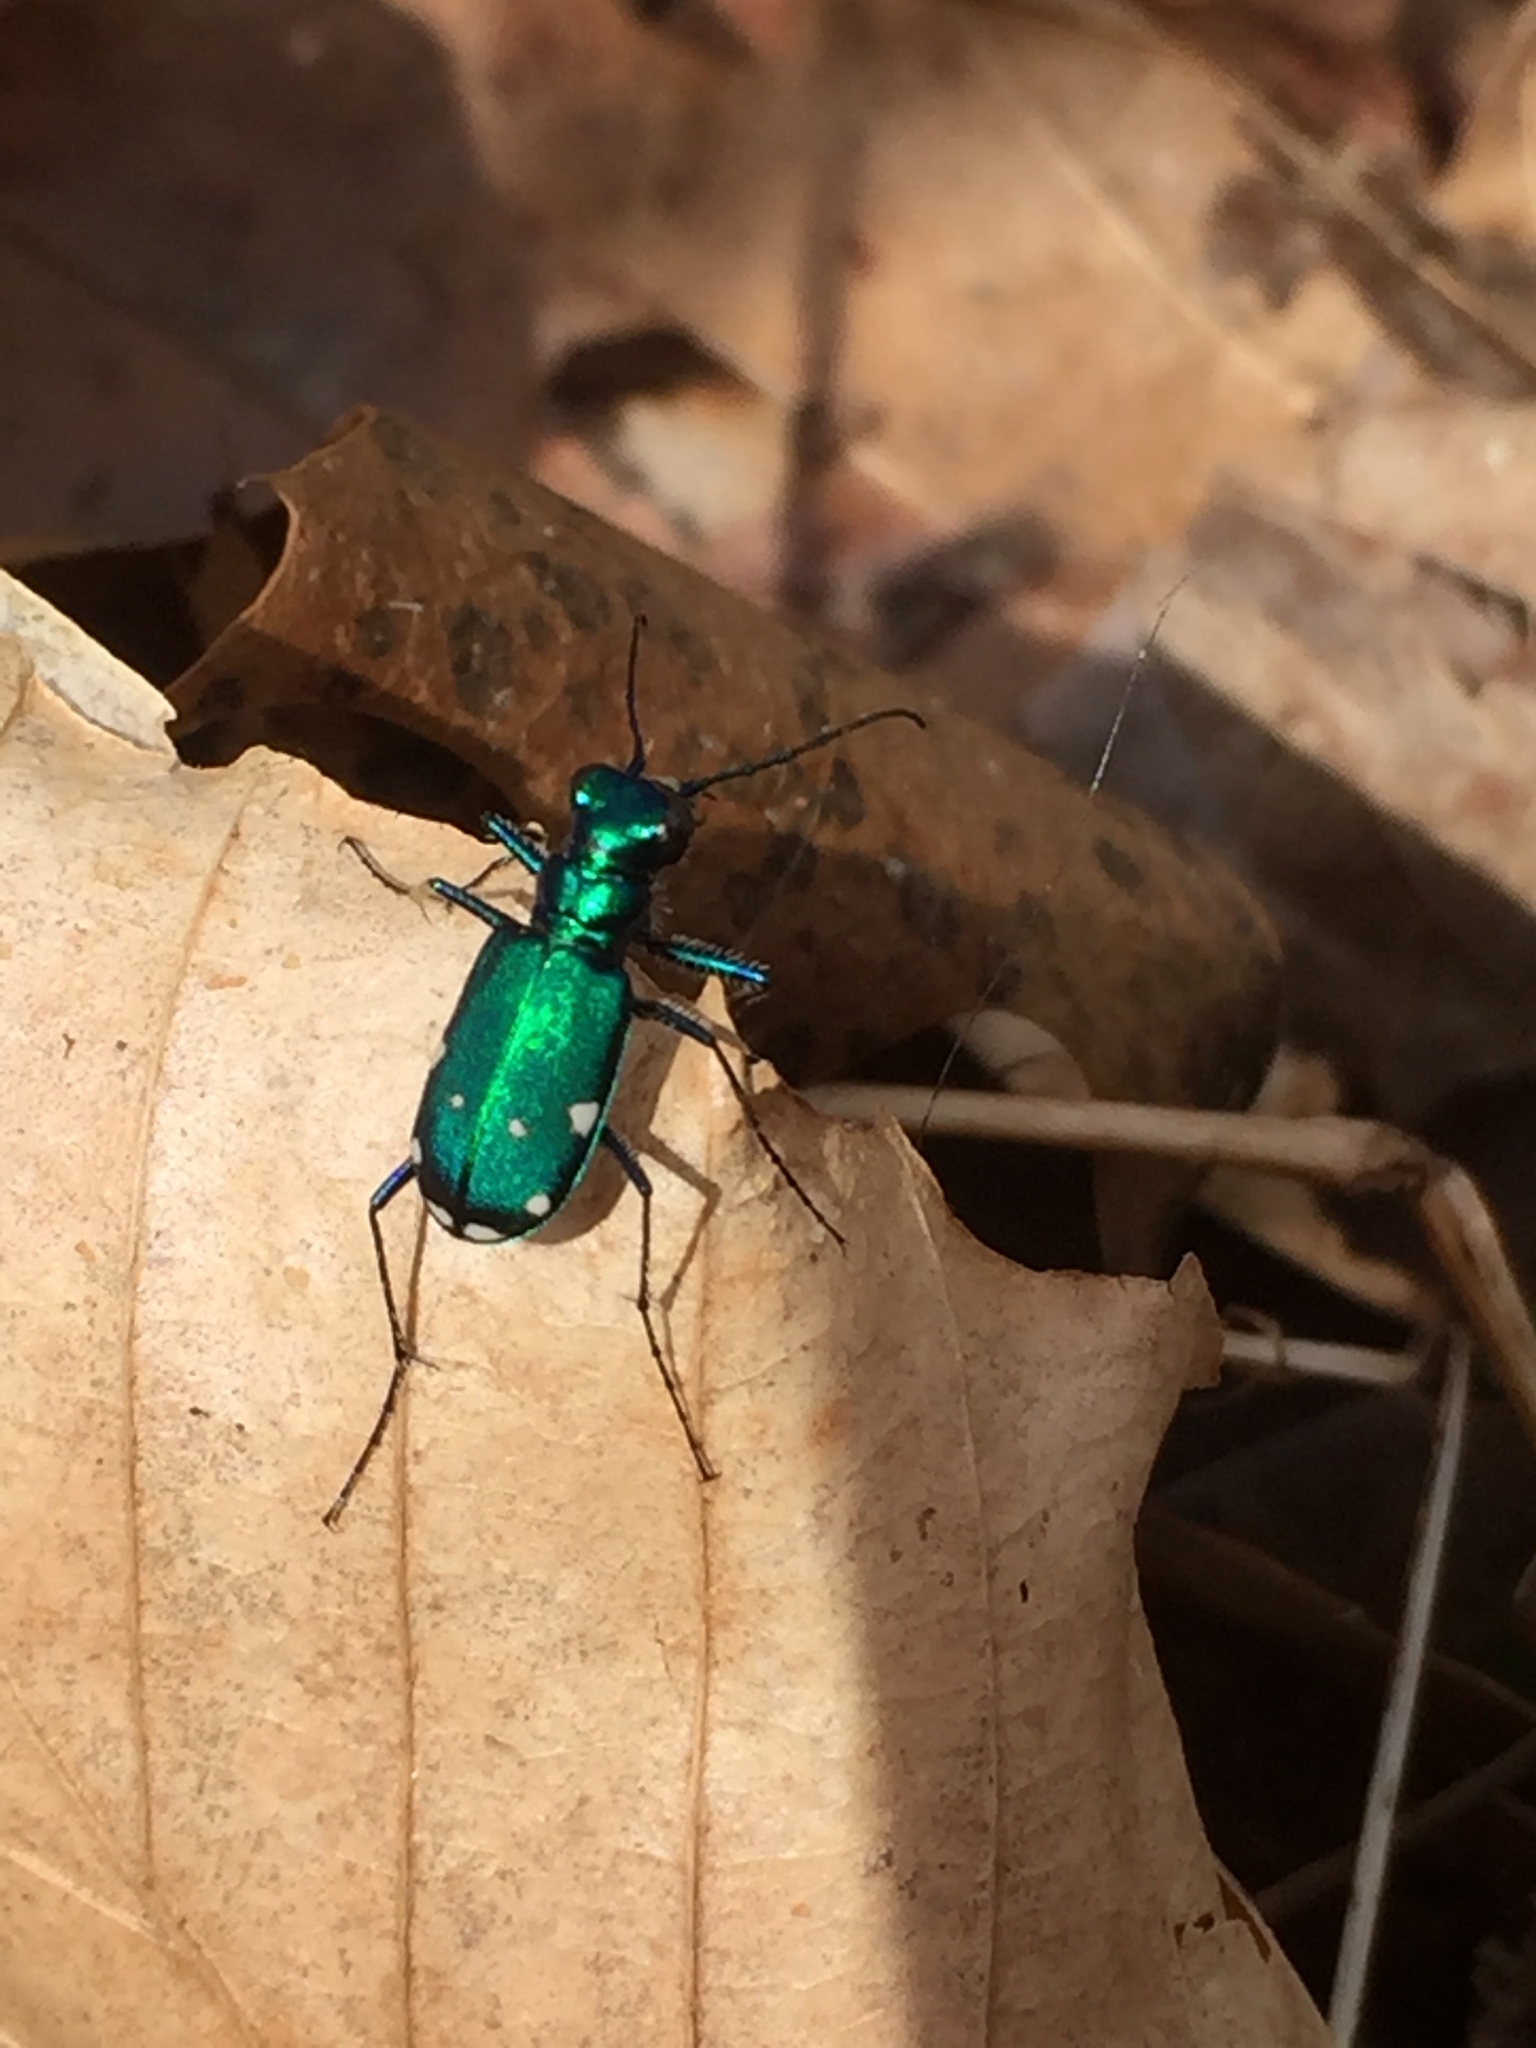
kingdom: Animalia
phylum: Arthropoda
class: Insecta
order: Coleoptera
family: Carabidae
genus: Cicindela
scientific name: Cicindela sexguttata
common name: Six-spotted tiger beetle
